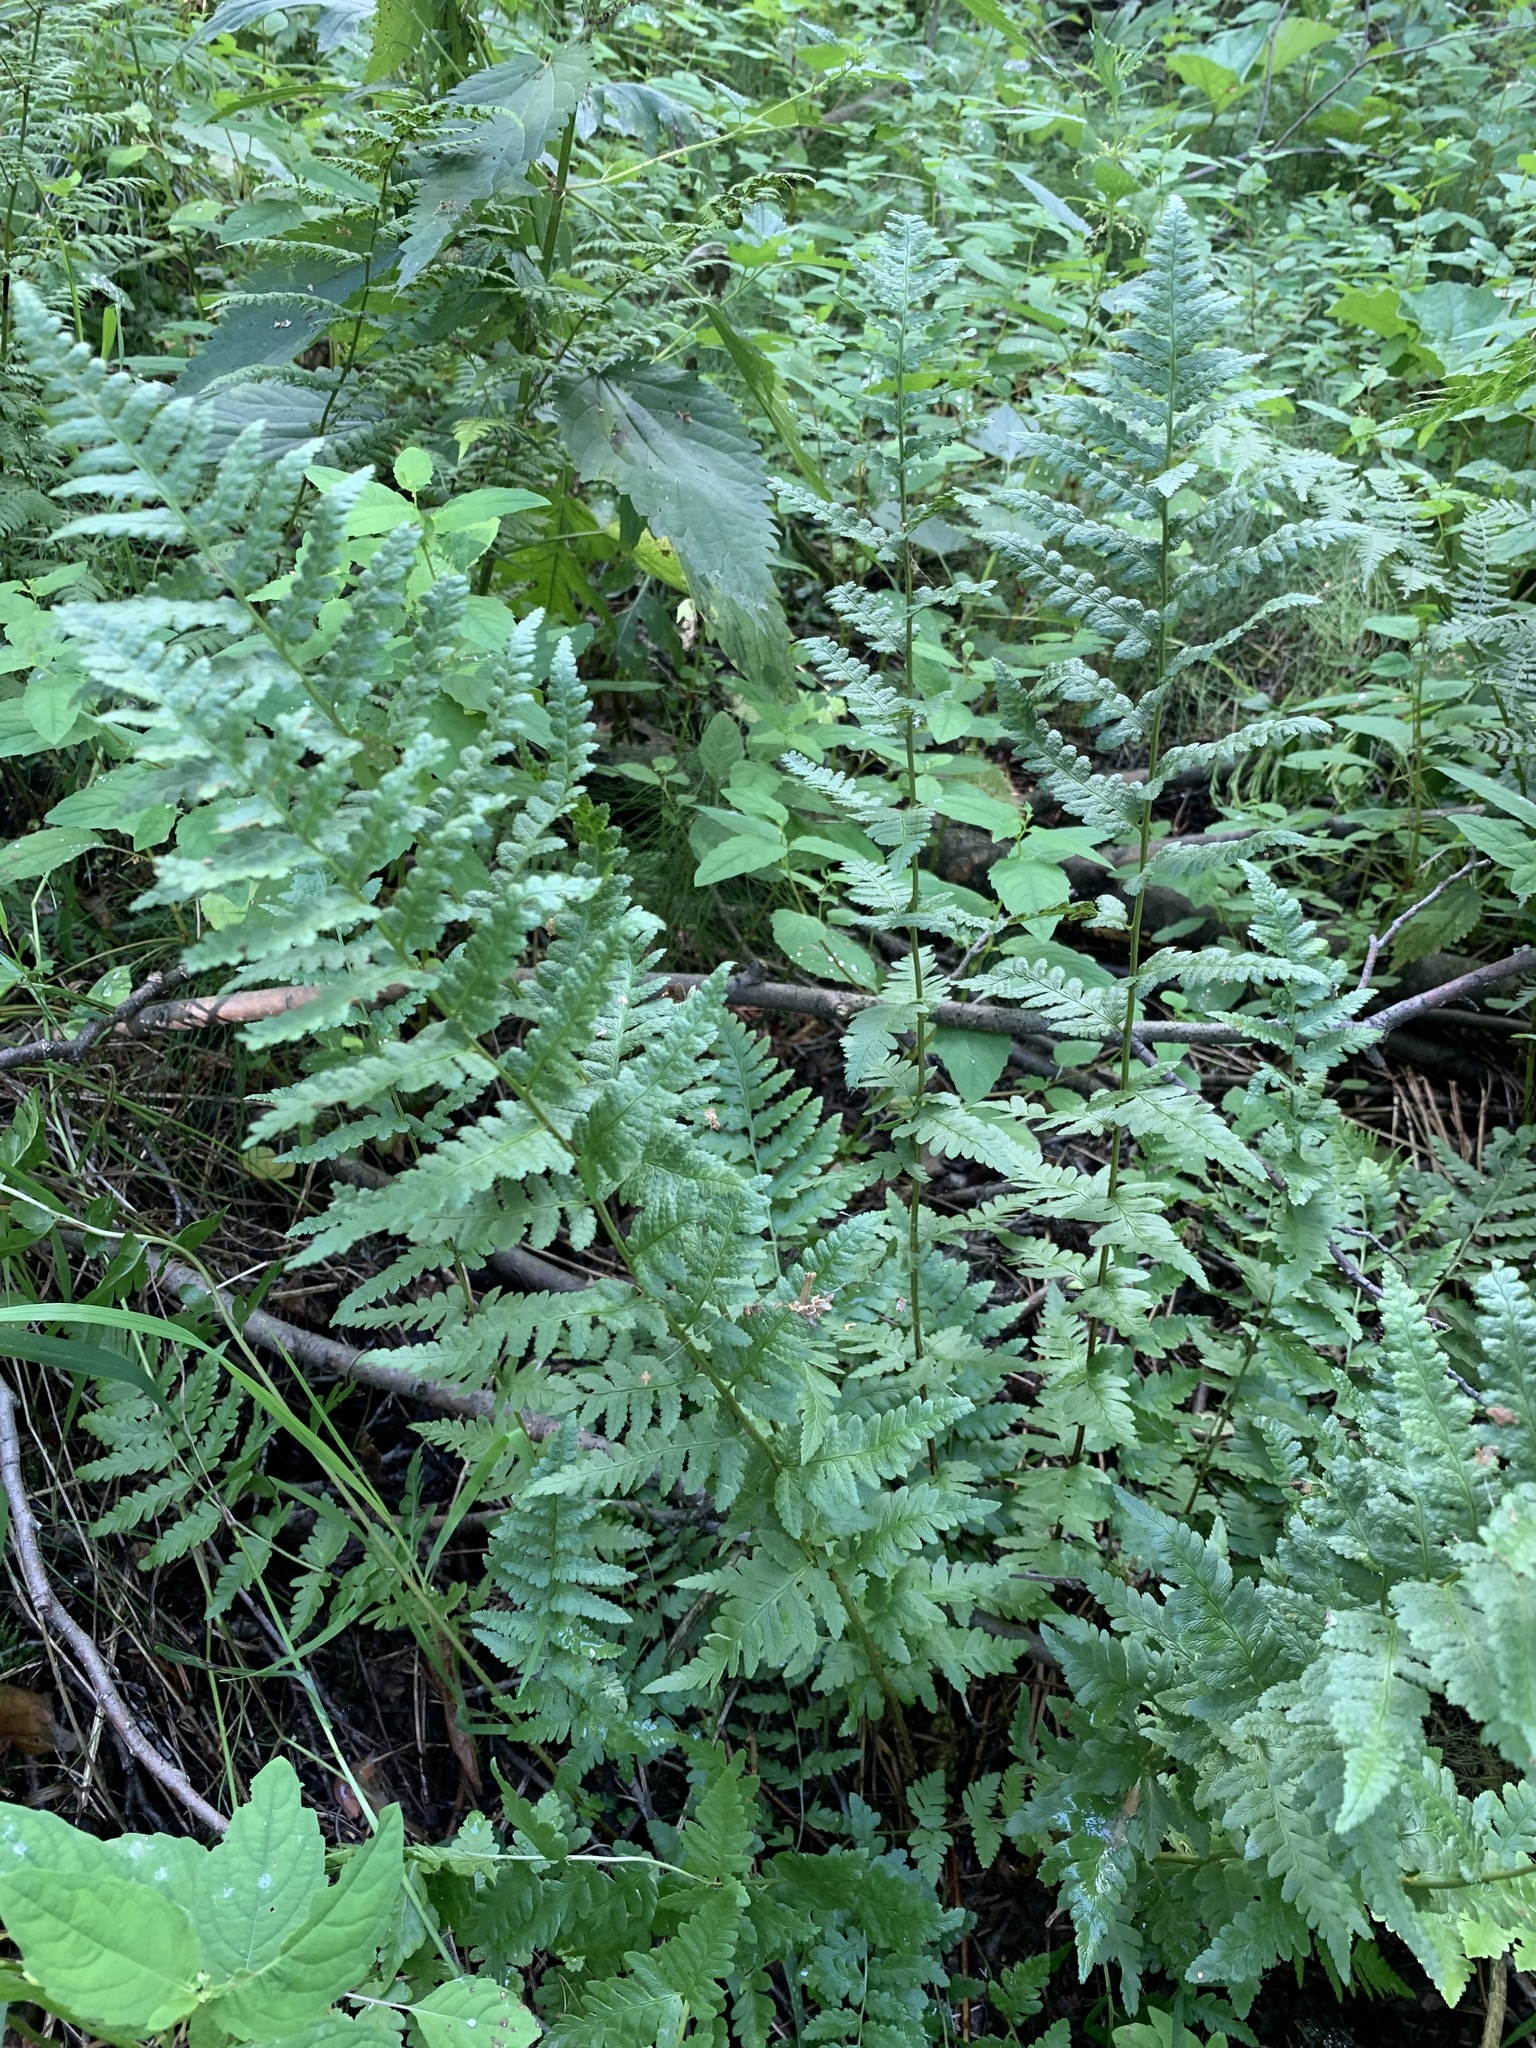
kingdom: Plantae
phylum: Tracheophyta
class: Polypodiopsida
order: Polypodiales
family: Dryopteridaceae
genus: Dryopteris
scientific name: Dryopteris cristata
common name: Crested wood fern
